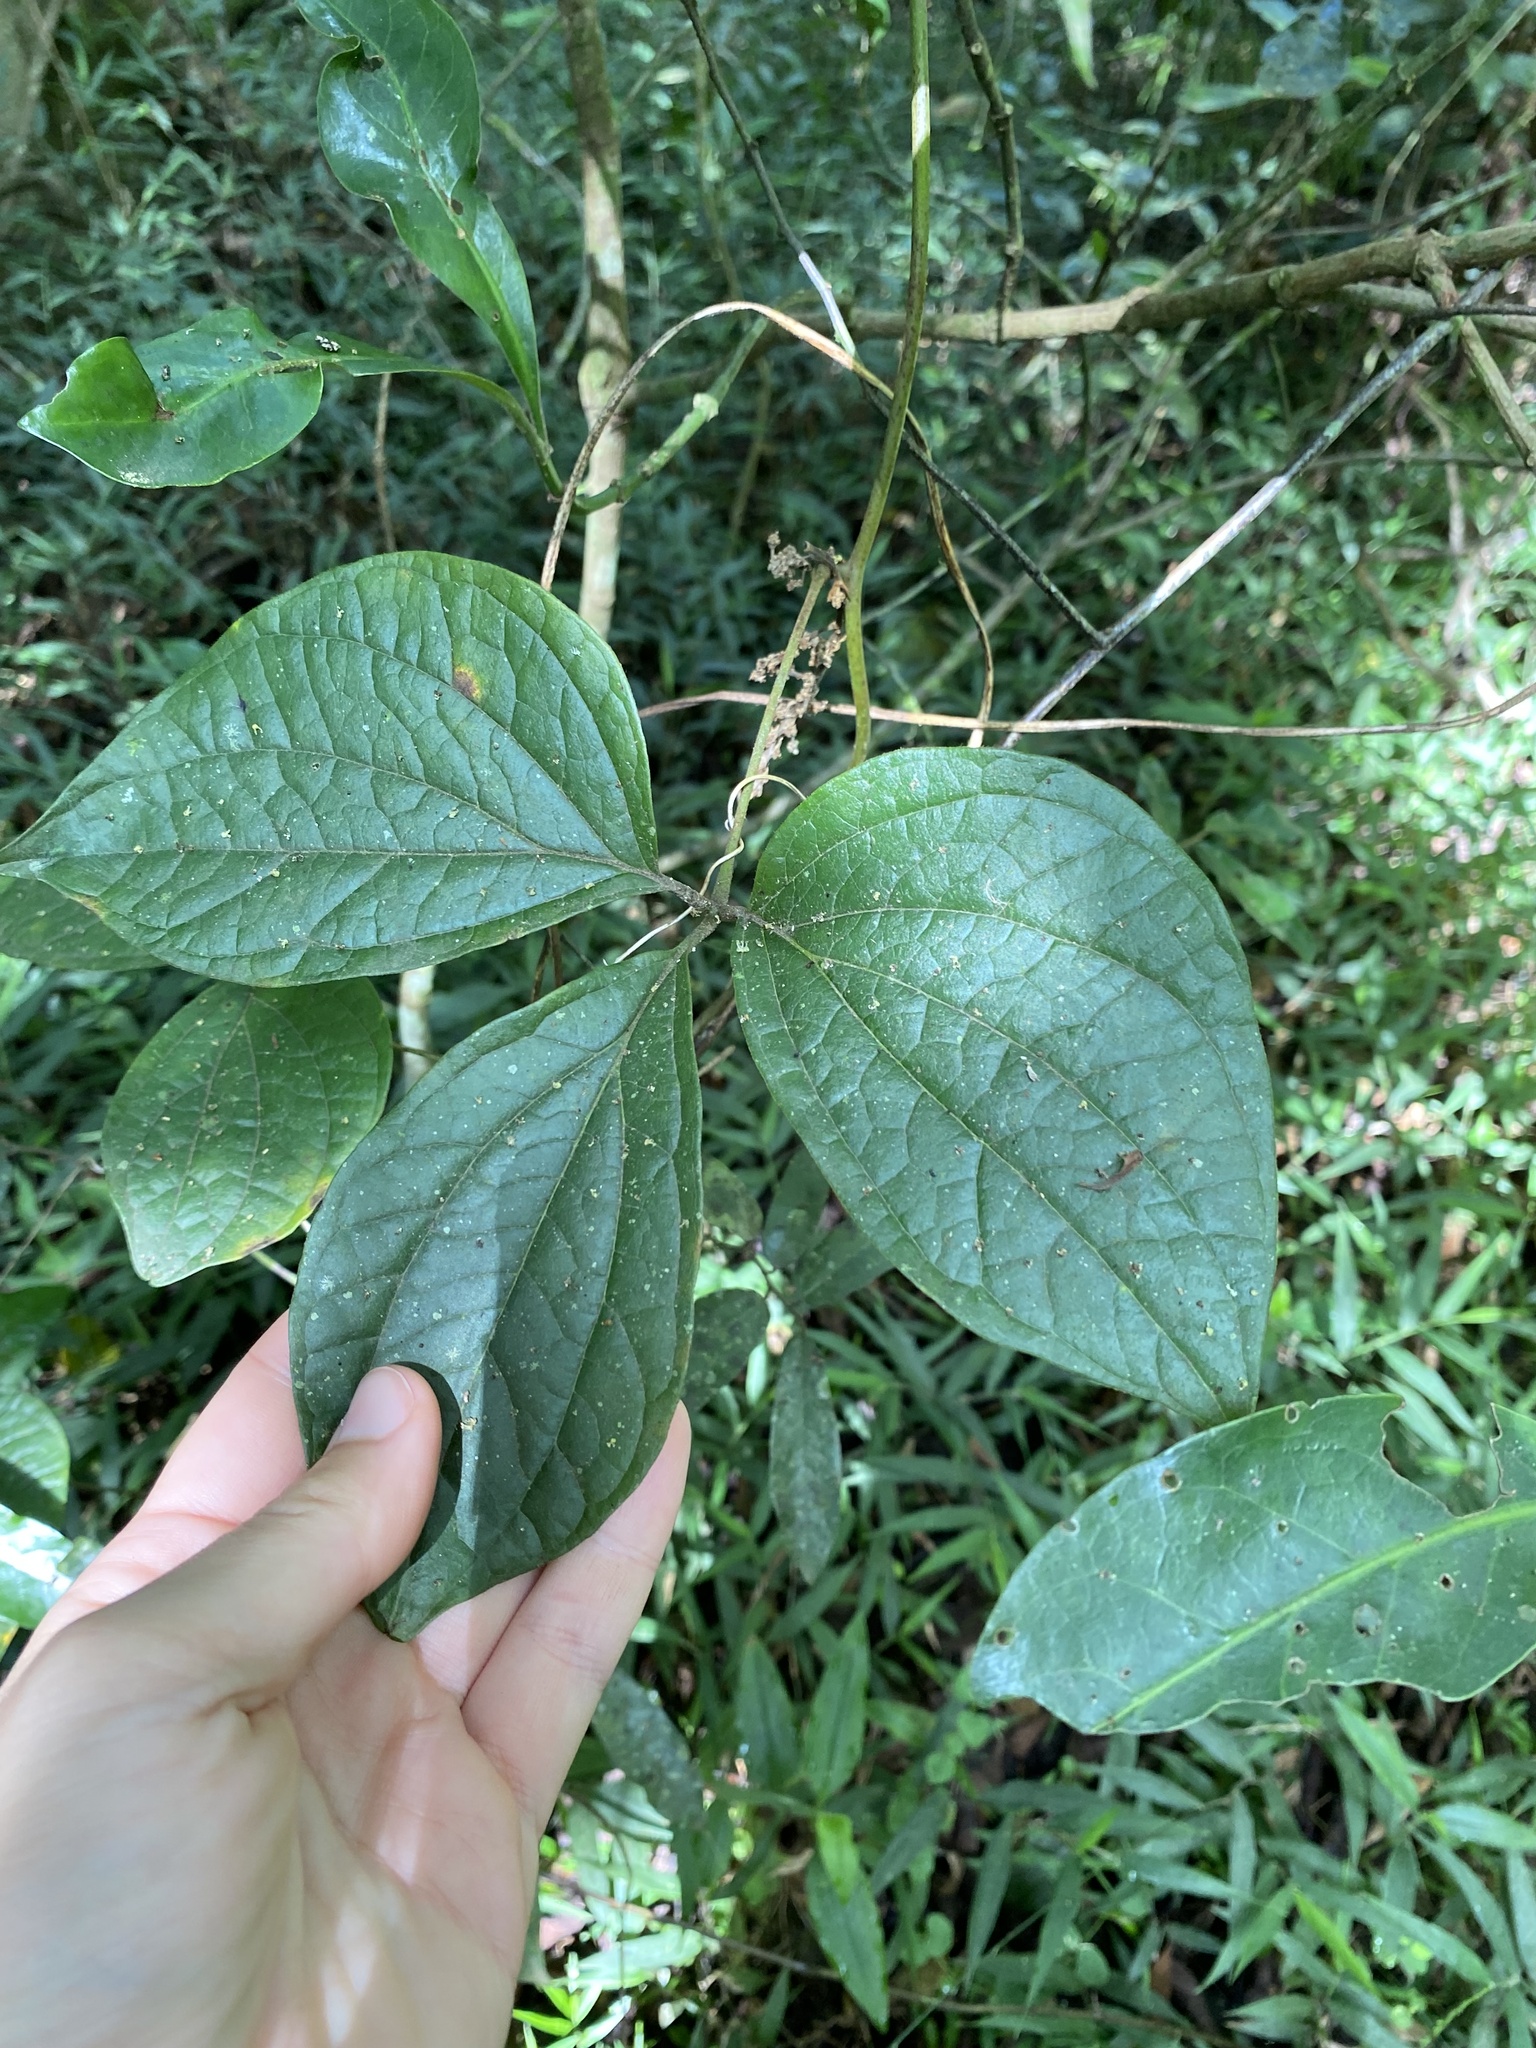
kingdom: Plantae
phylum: Tracheophyta
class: Liliopsida
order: Dioscoreales
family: Dioscoreaceae
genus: Dioscorea
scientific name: Dioscorea dregeana
